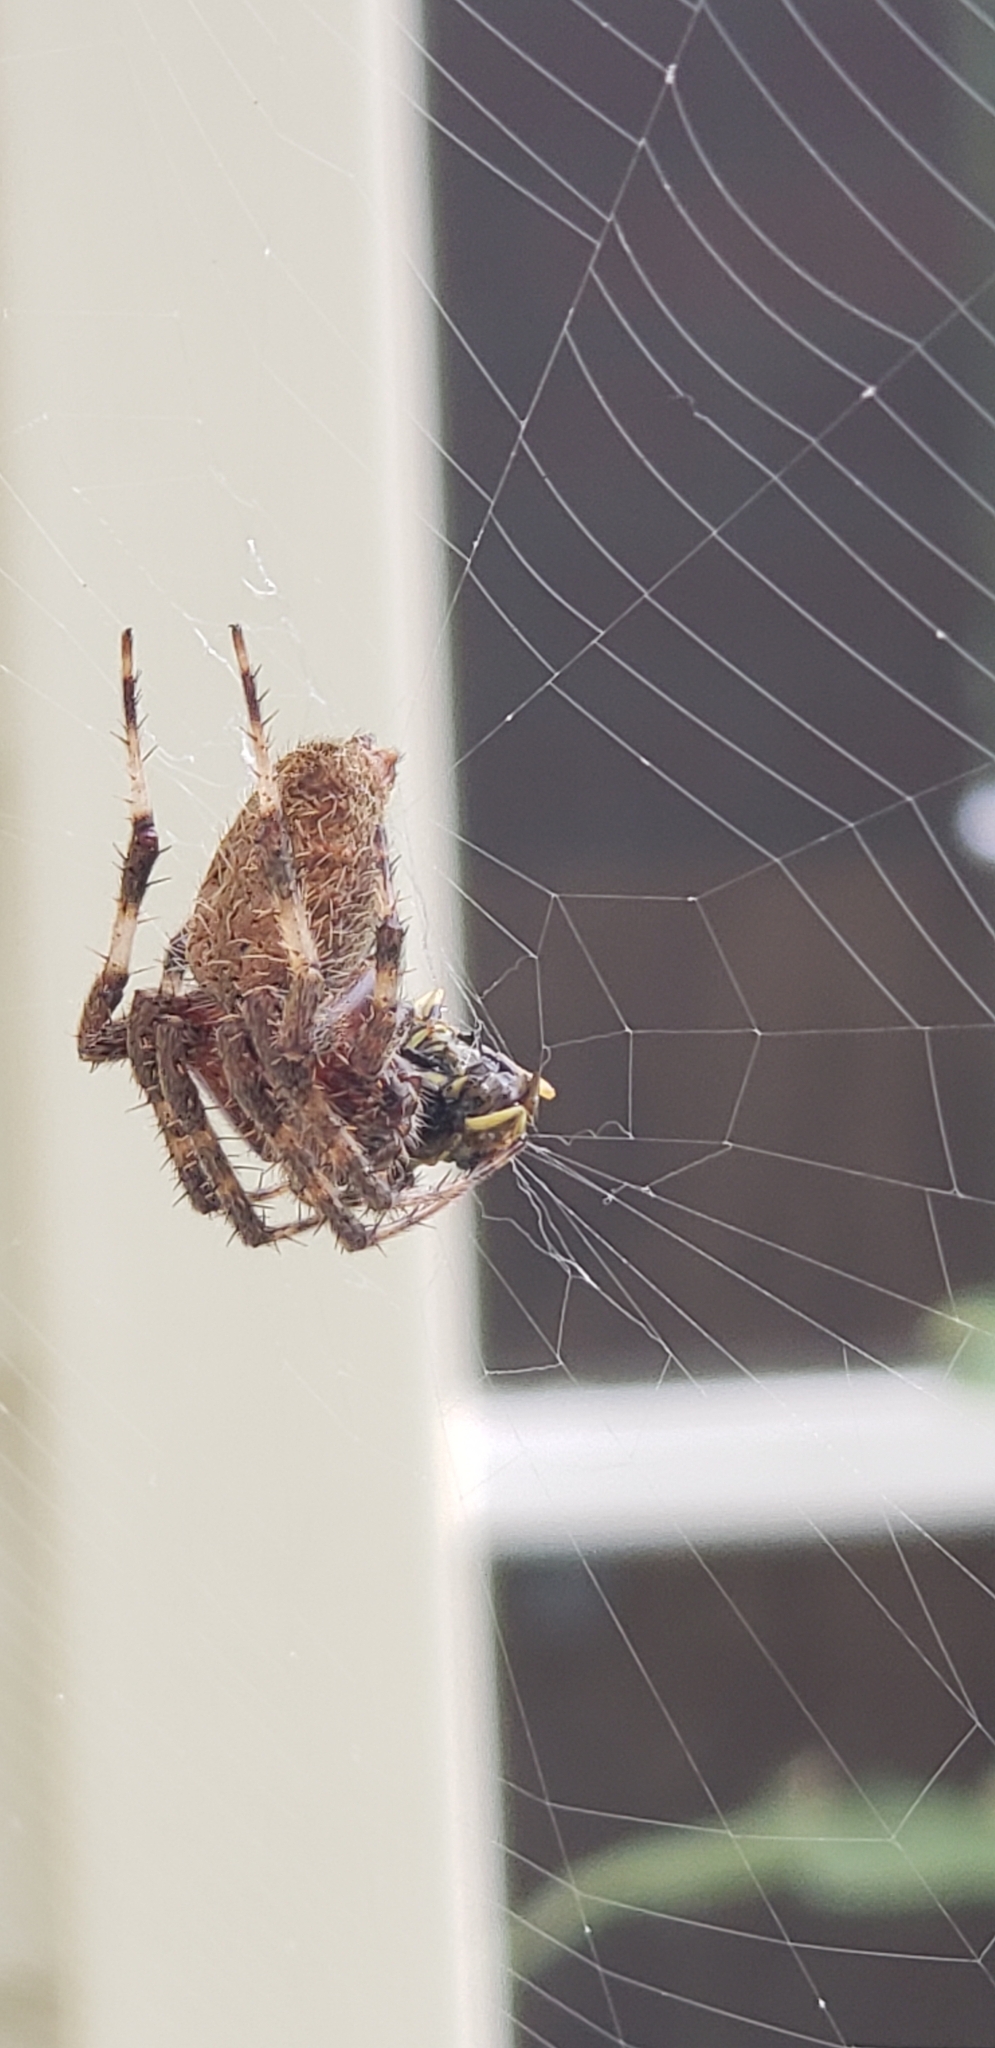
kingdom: Animalia
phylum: Arthropoda
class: Arachnida
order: Araneae
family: Araneidae
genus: Neoscona
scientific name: Neoscona crucifera
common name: Spotted orbweaver
